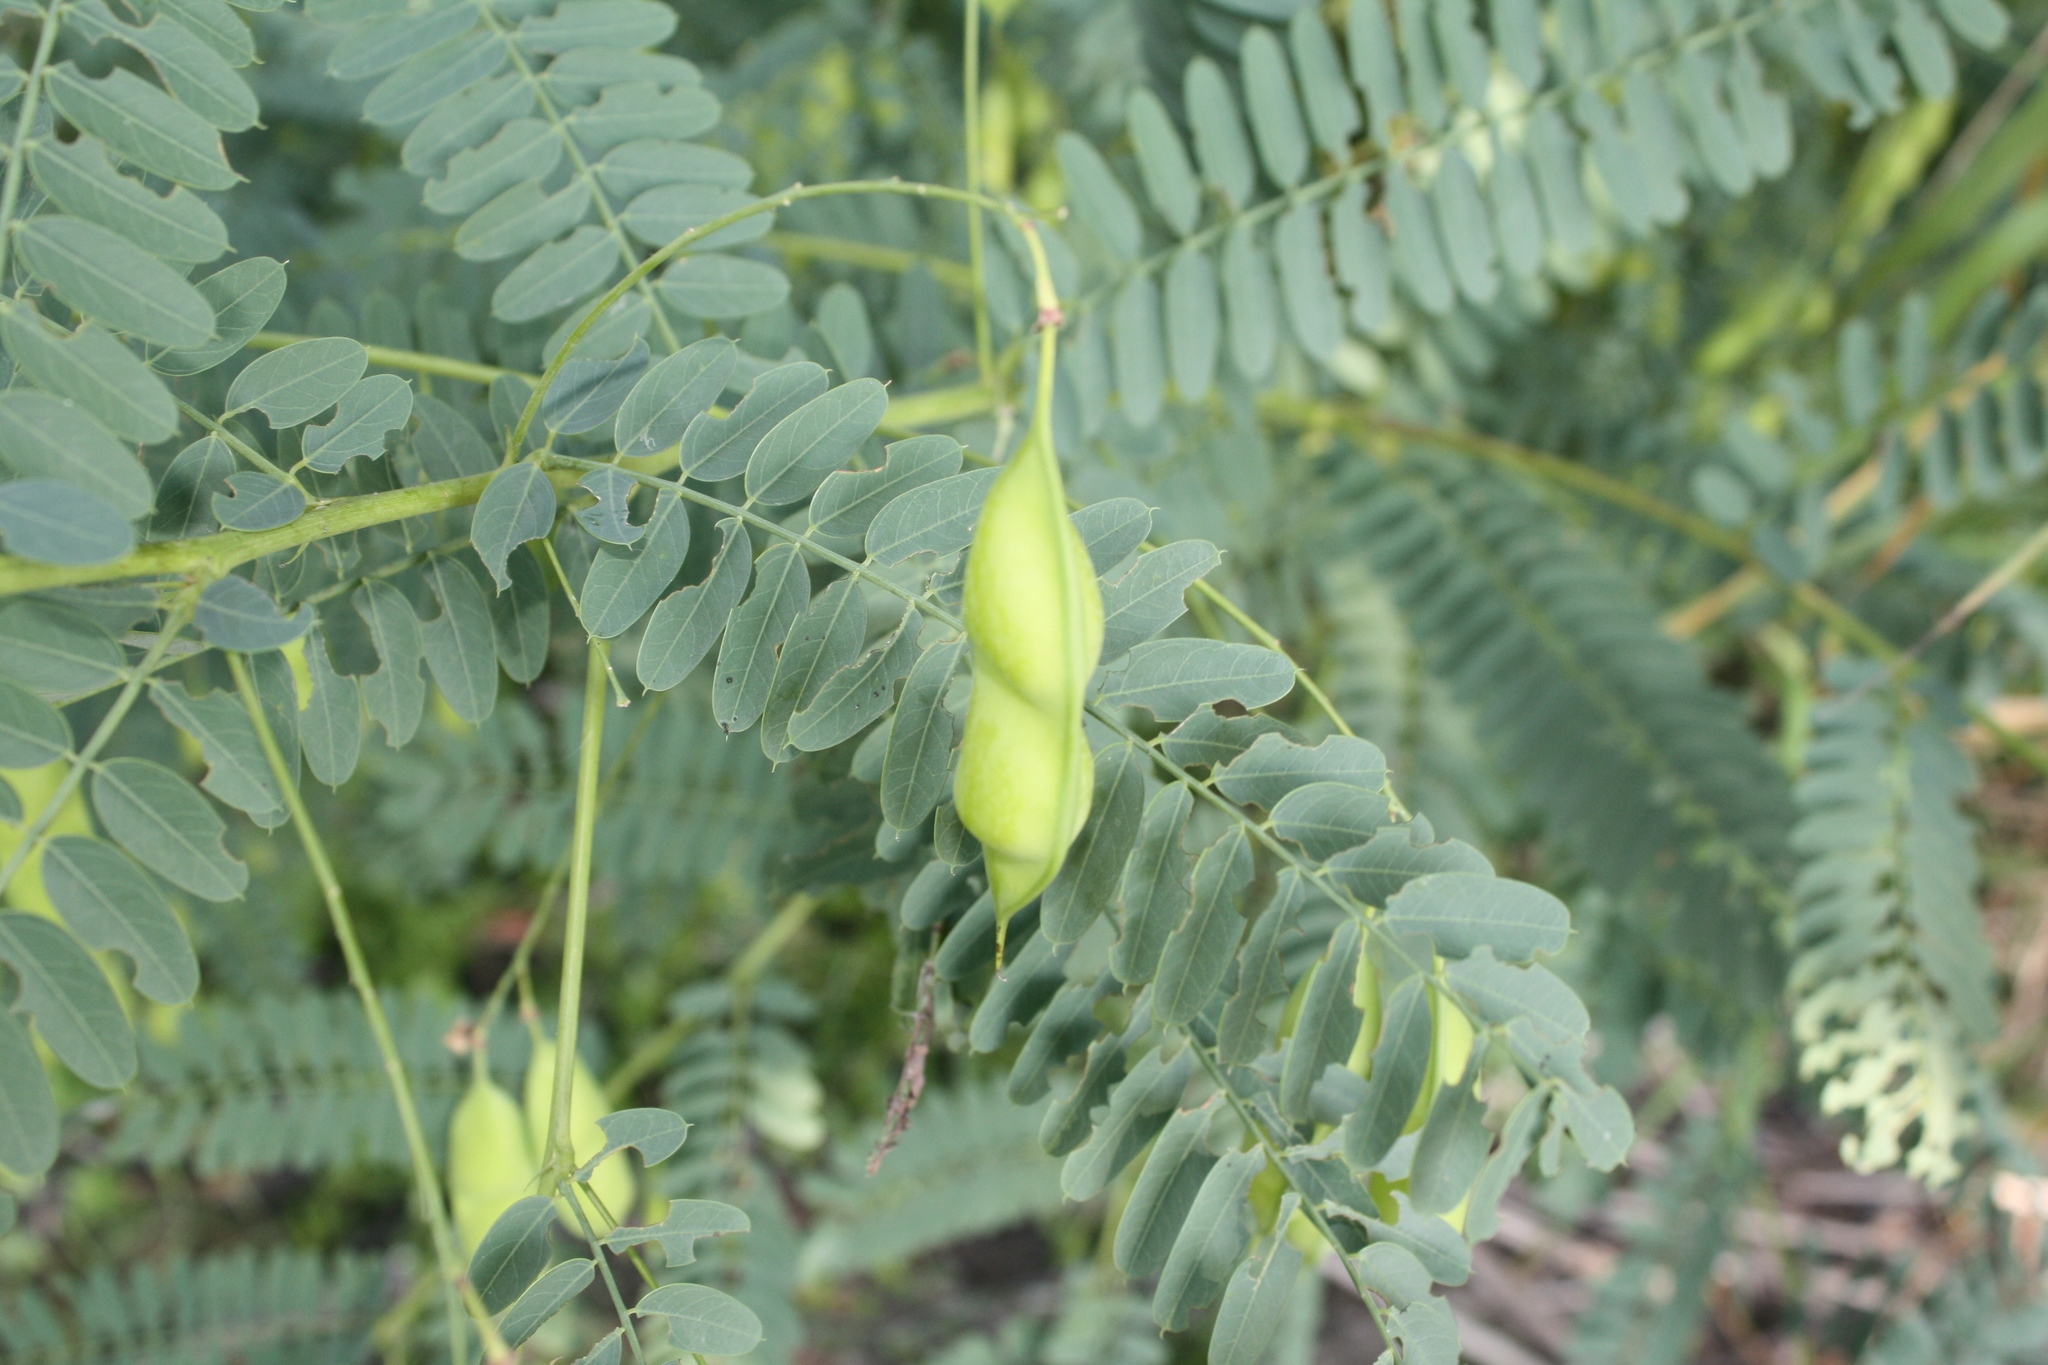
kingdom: Plantae
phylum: Tracheophyta
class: Magnoliopsida
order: Fabales
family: Fabaceae
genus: Sesbania
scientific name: Sesbania vesicaria
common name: Bagpod
